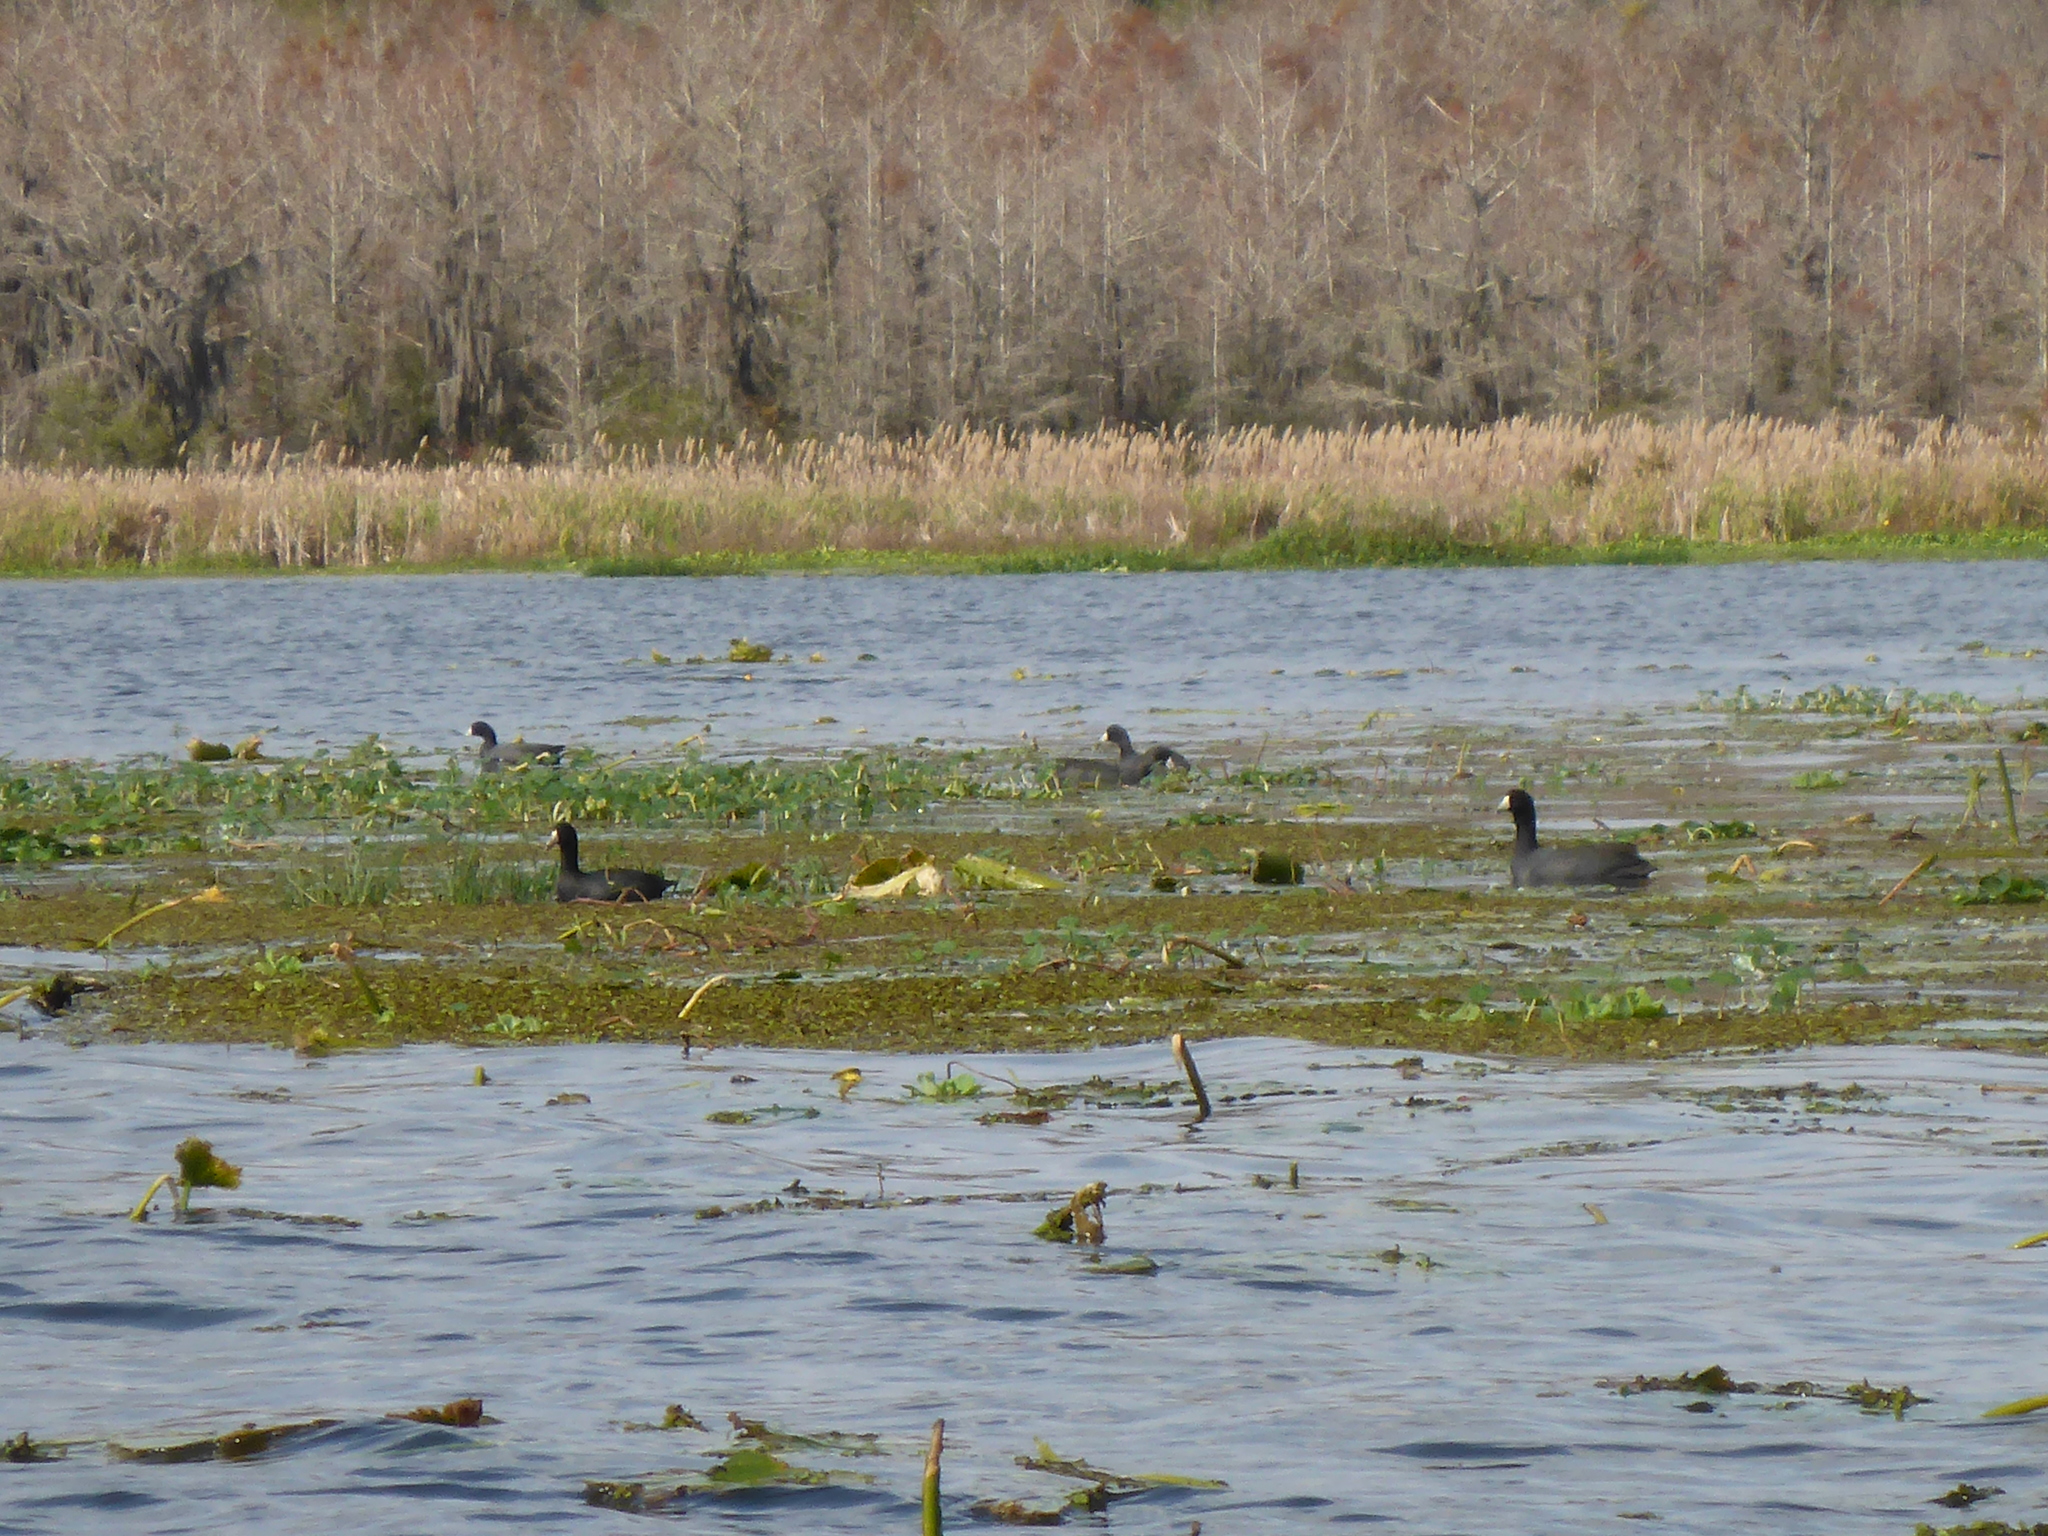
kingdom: Animalia
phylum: Chordata
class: Aves
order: Gruiformes
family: Rallidae
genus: Fulica
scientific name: Fulica americana
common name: American coot
